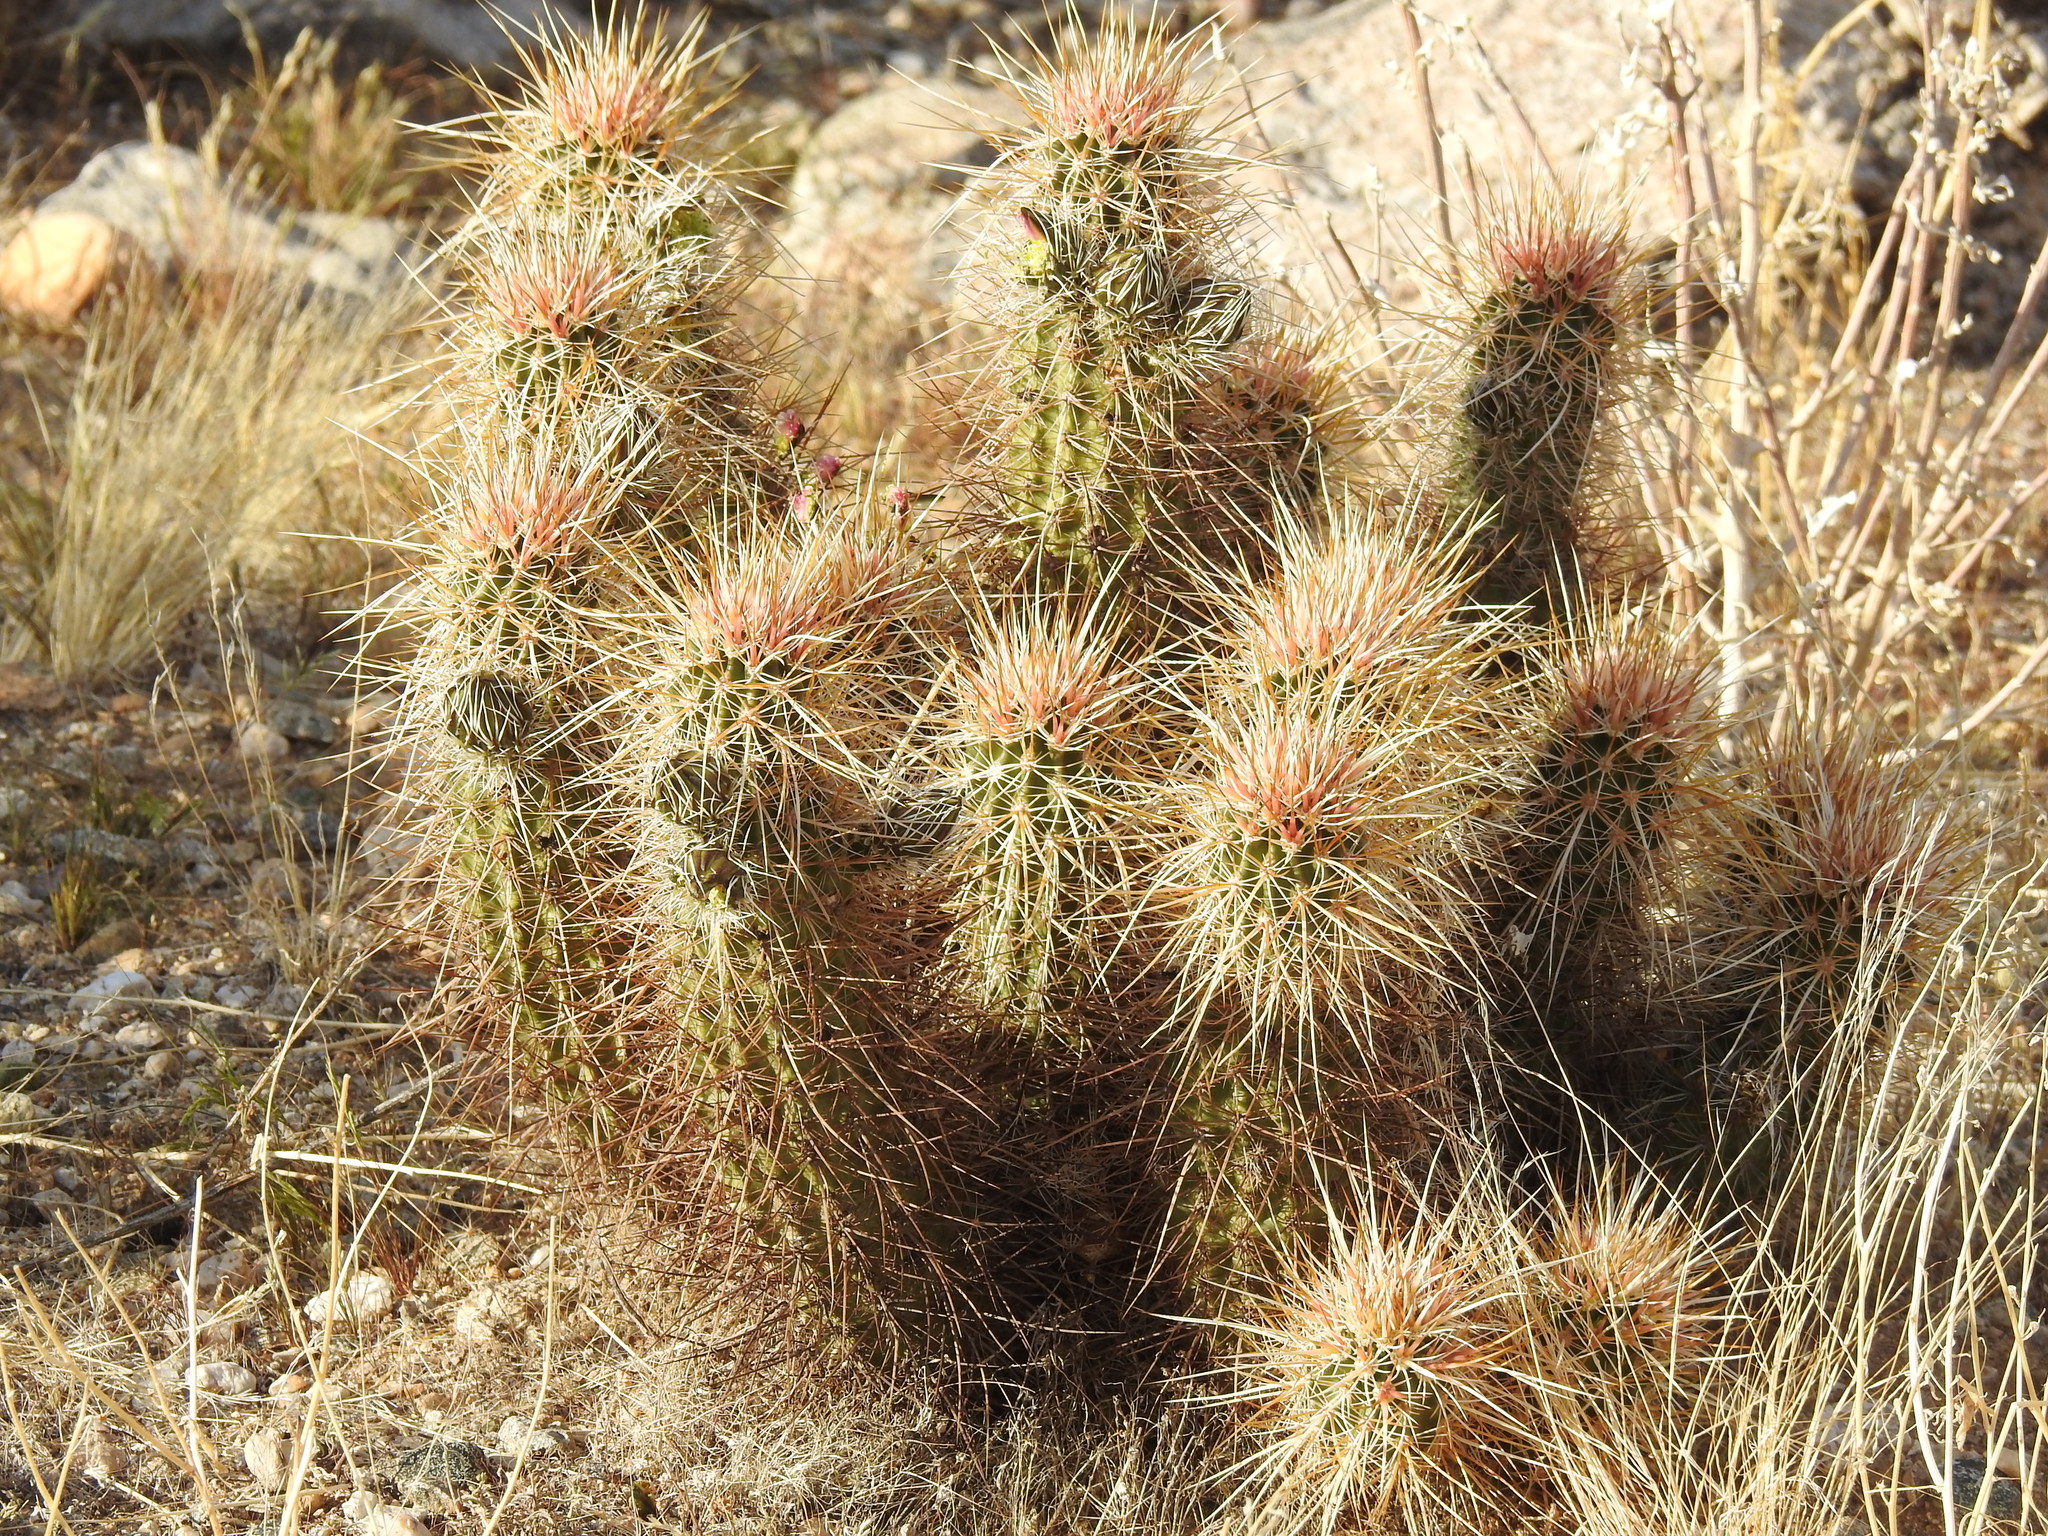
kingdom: Plantae
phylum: Tracheophyta
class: Magnoliopsida
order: Caryophyllales
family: Cactaceae
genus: Echinocereus
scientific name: Echinocereus engelmannii
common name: Engelmann's hedgehog cactus
